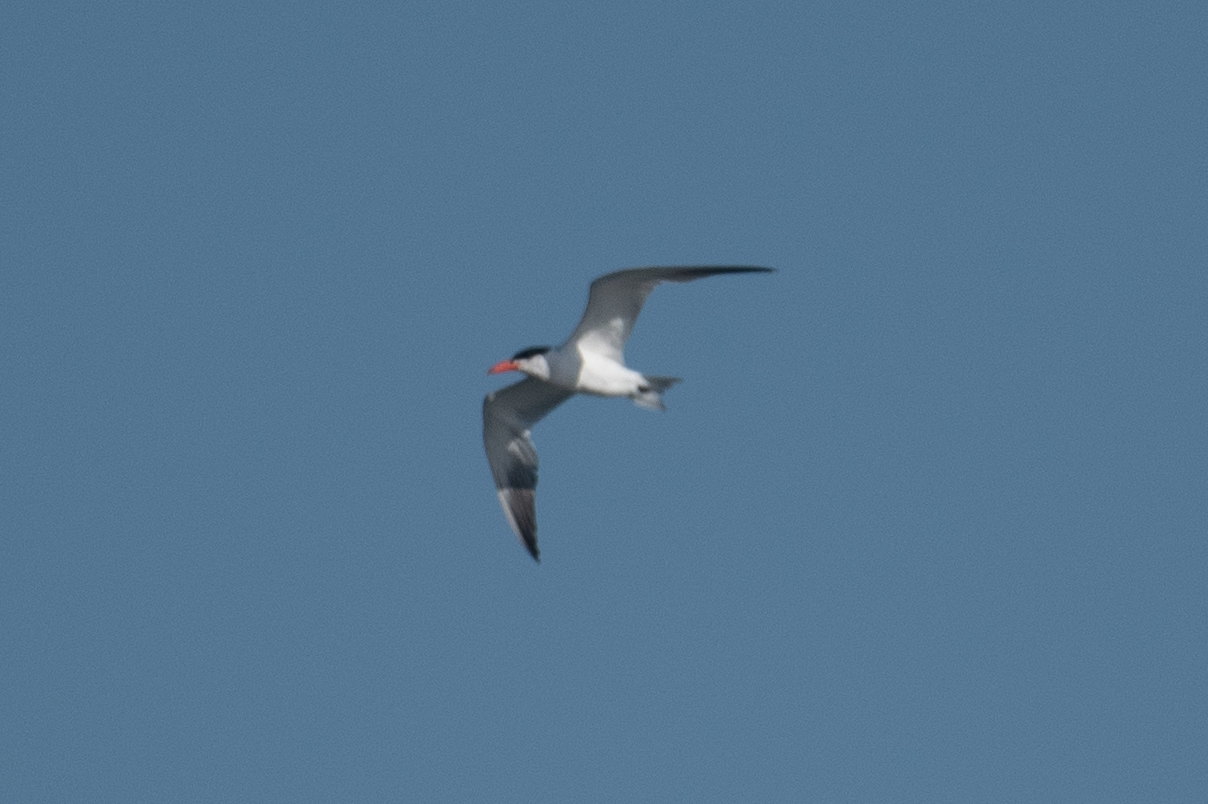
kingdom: Animalia
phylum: Chordata
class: Aves
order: Charadriiformes
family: Laridae
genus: Hydroprogne
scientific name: Hydroprogne caspia
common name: Caspian tern
